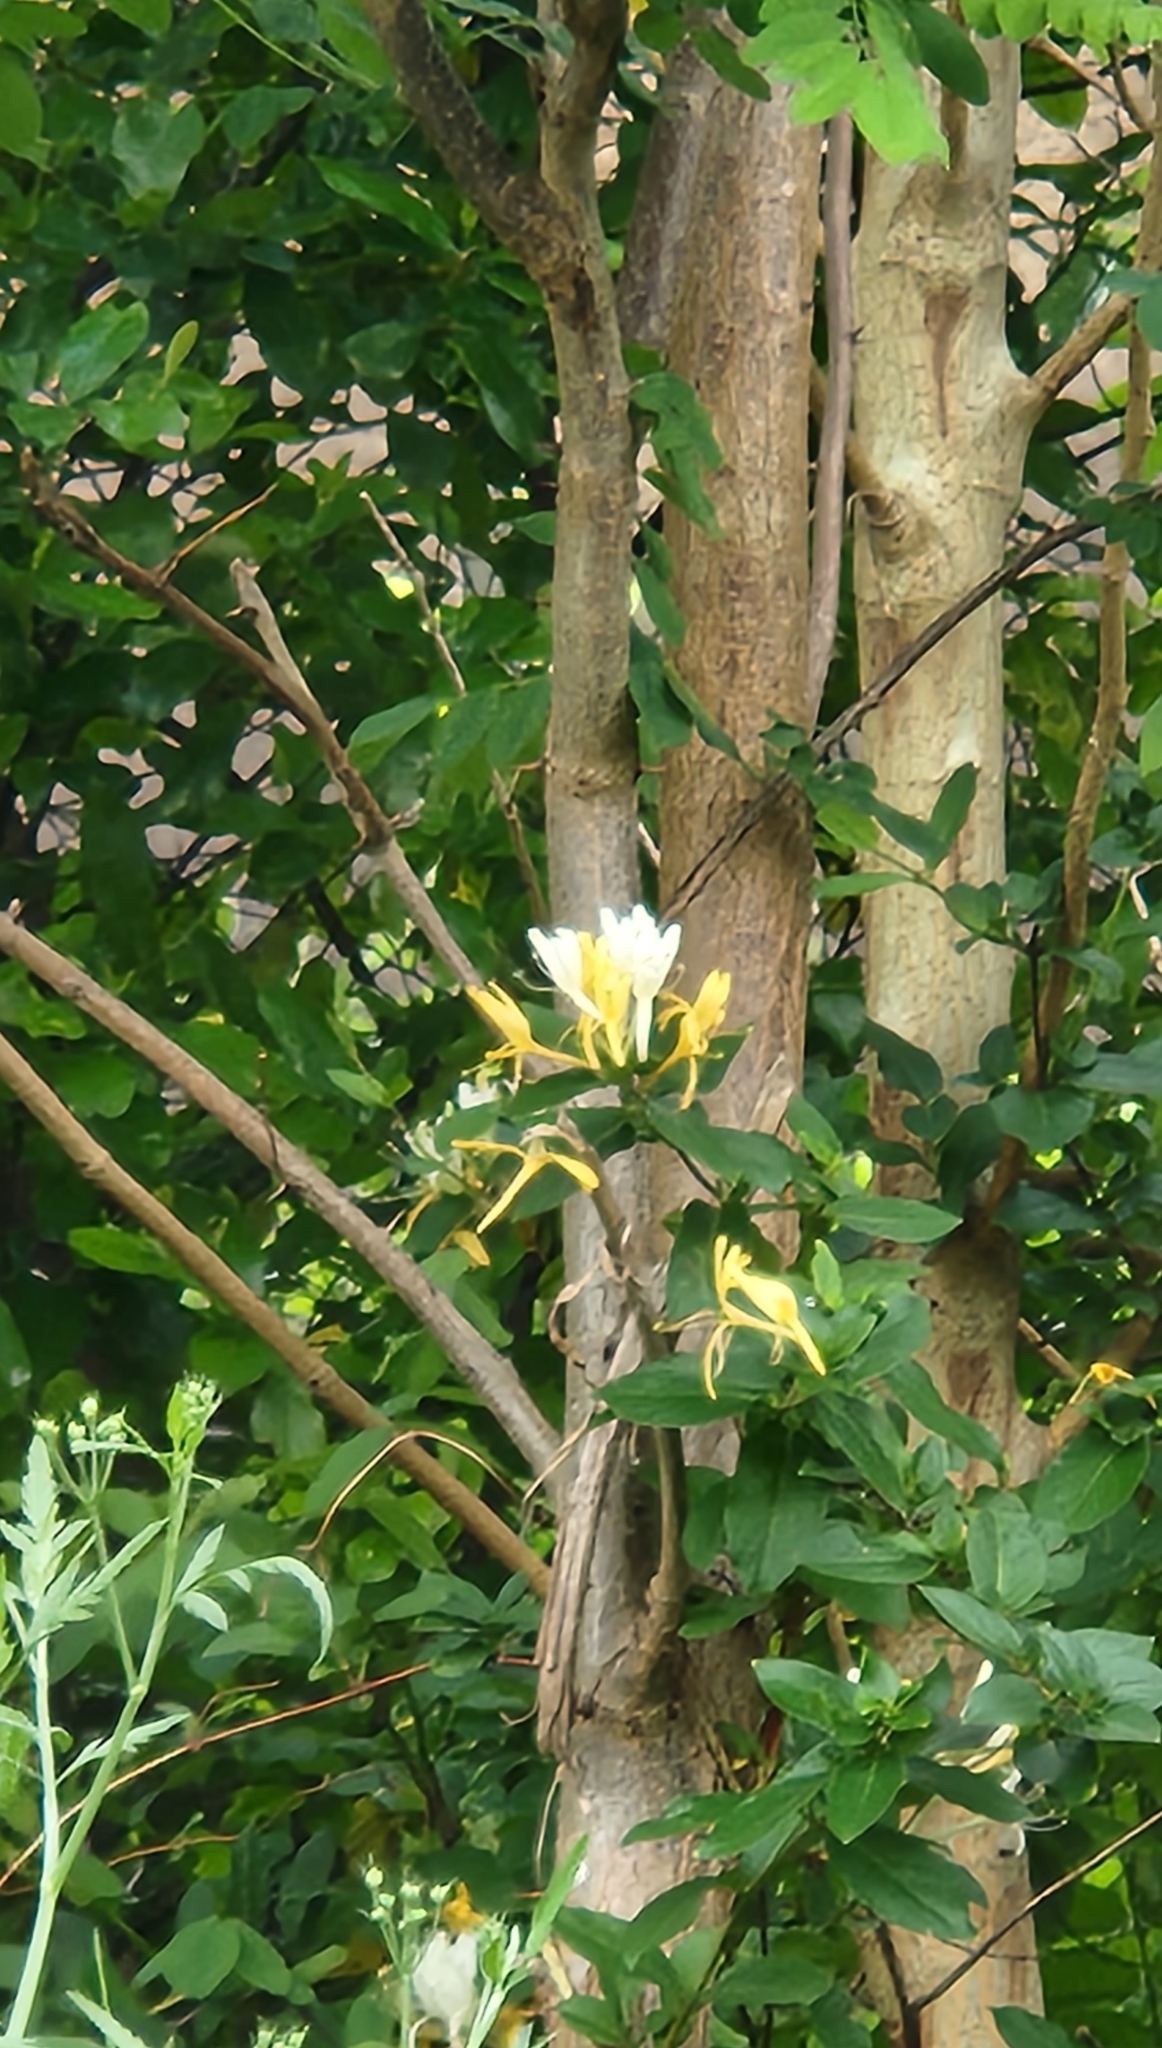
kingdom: Plantae
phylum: Tracheophyta
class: Magnoliopsida
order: Dipsacales
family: Caprifoliaceae
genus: Lonicera
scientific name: Lonicera japonica
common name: Japanese honeysuckle
